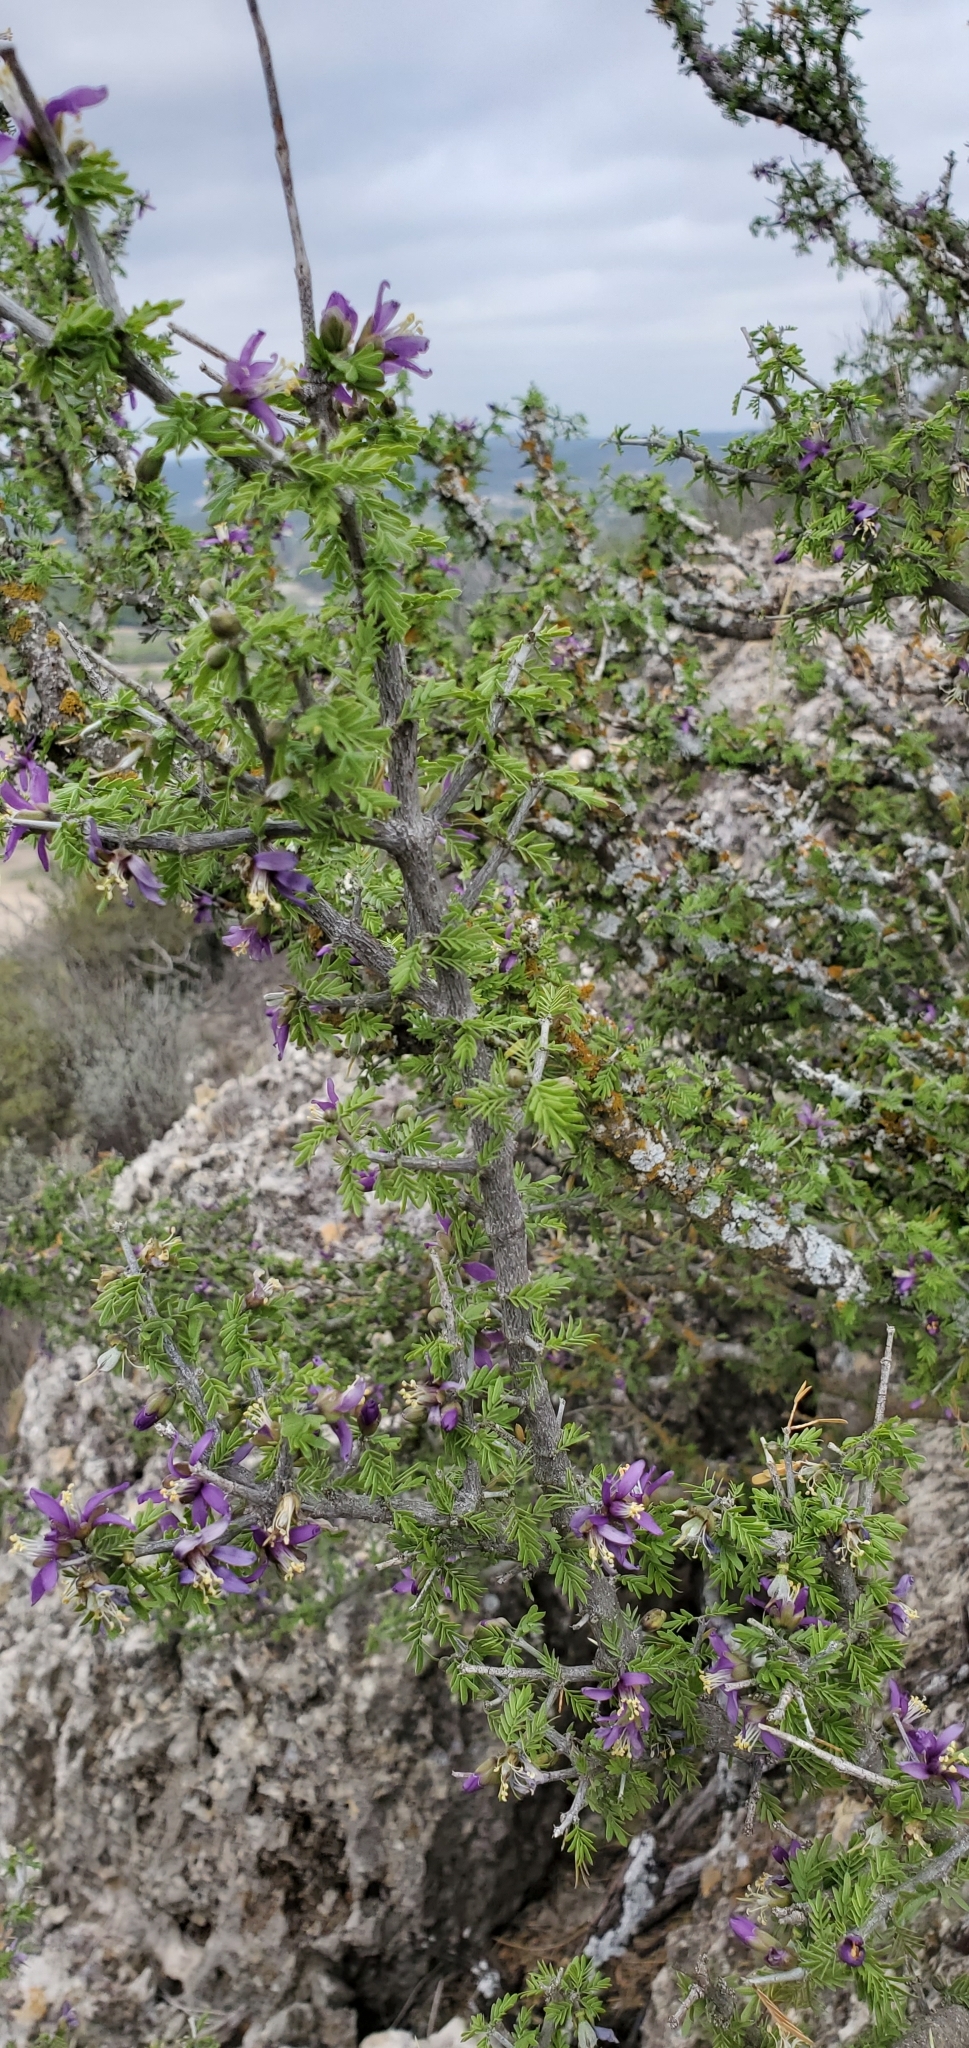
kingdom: Plantae
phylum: Tracheophyta
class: Magnoliopsida
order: Zygophyllales
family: Zygophyllaceae
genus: Porlieria
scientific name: Porlieria angustifolia
